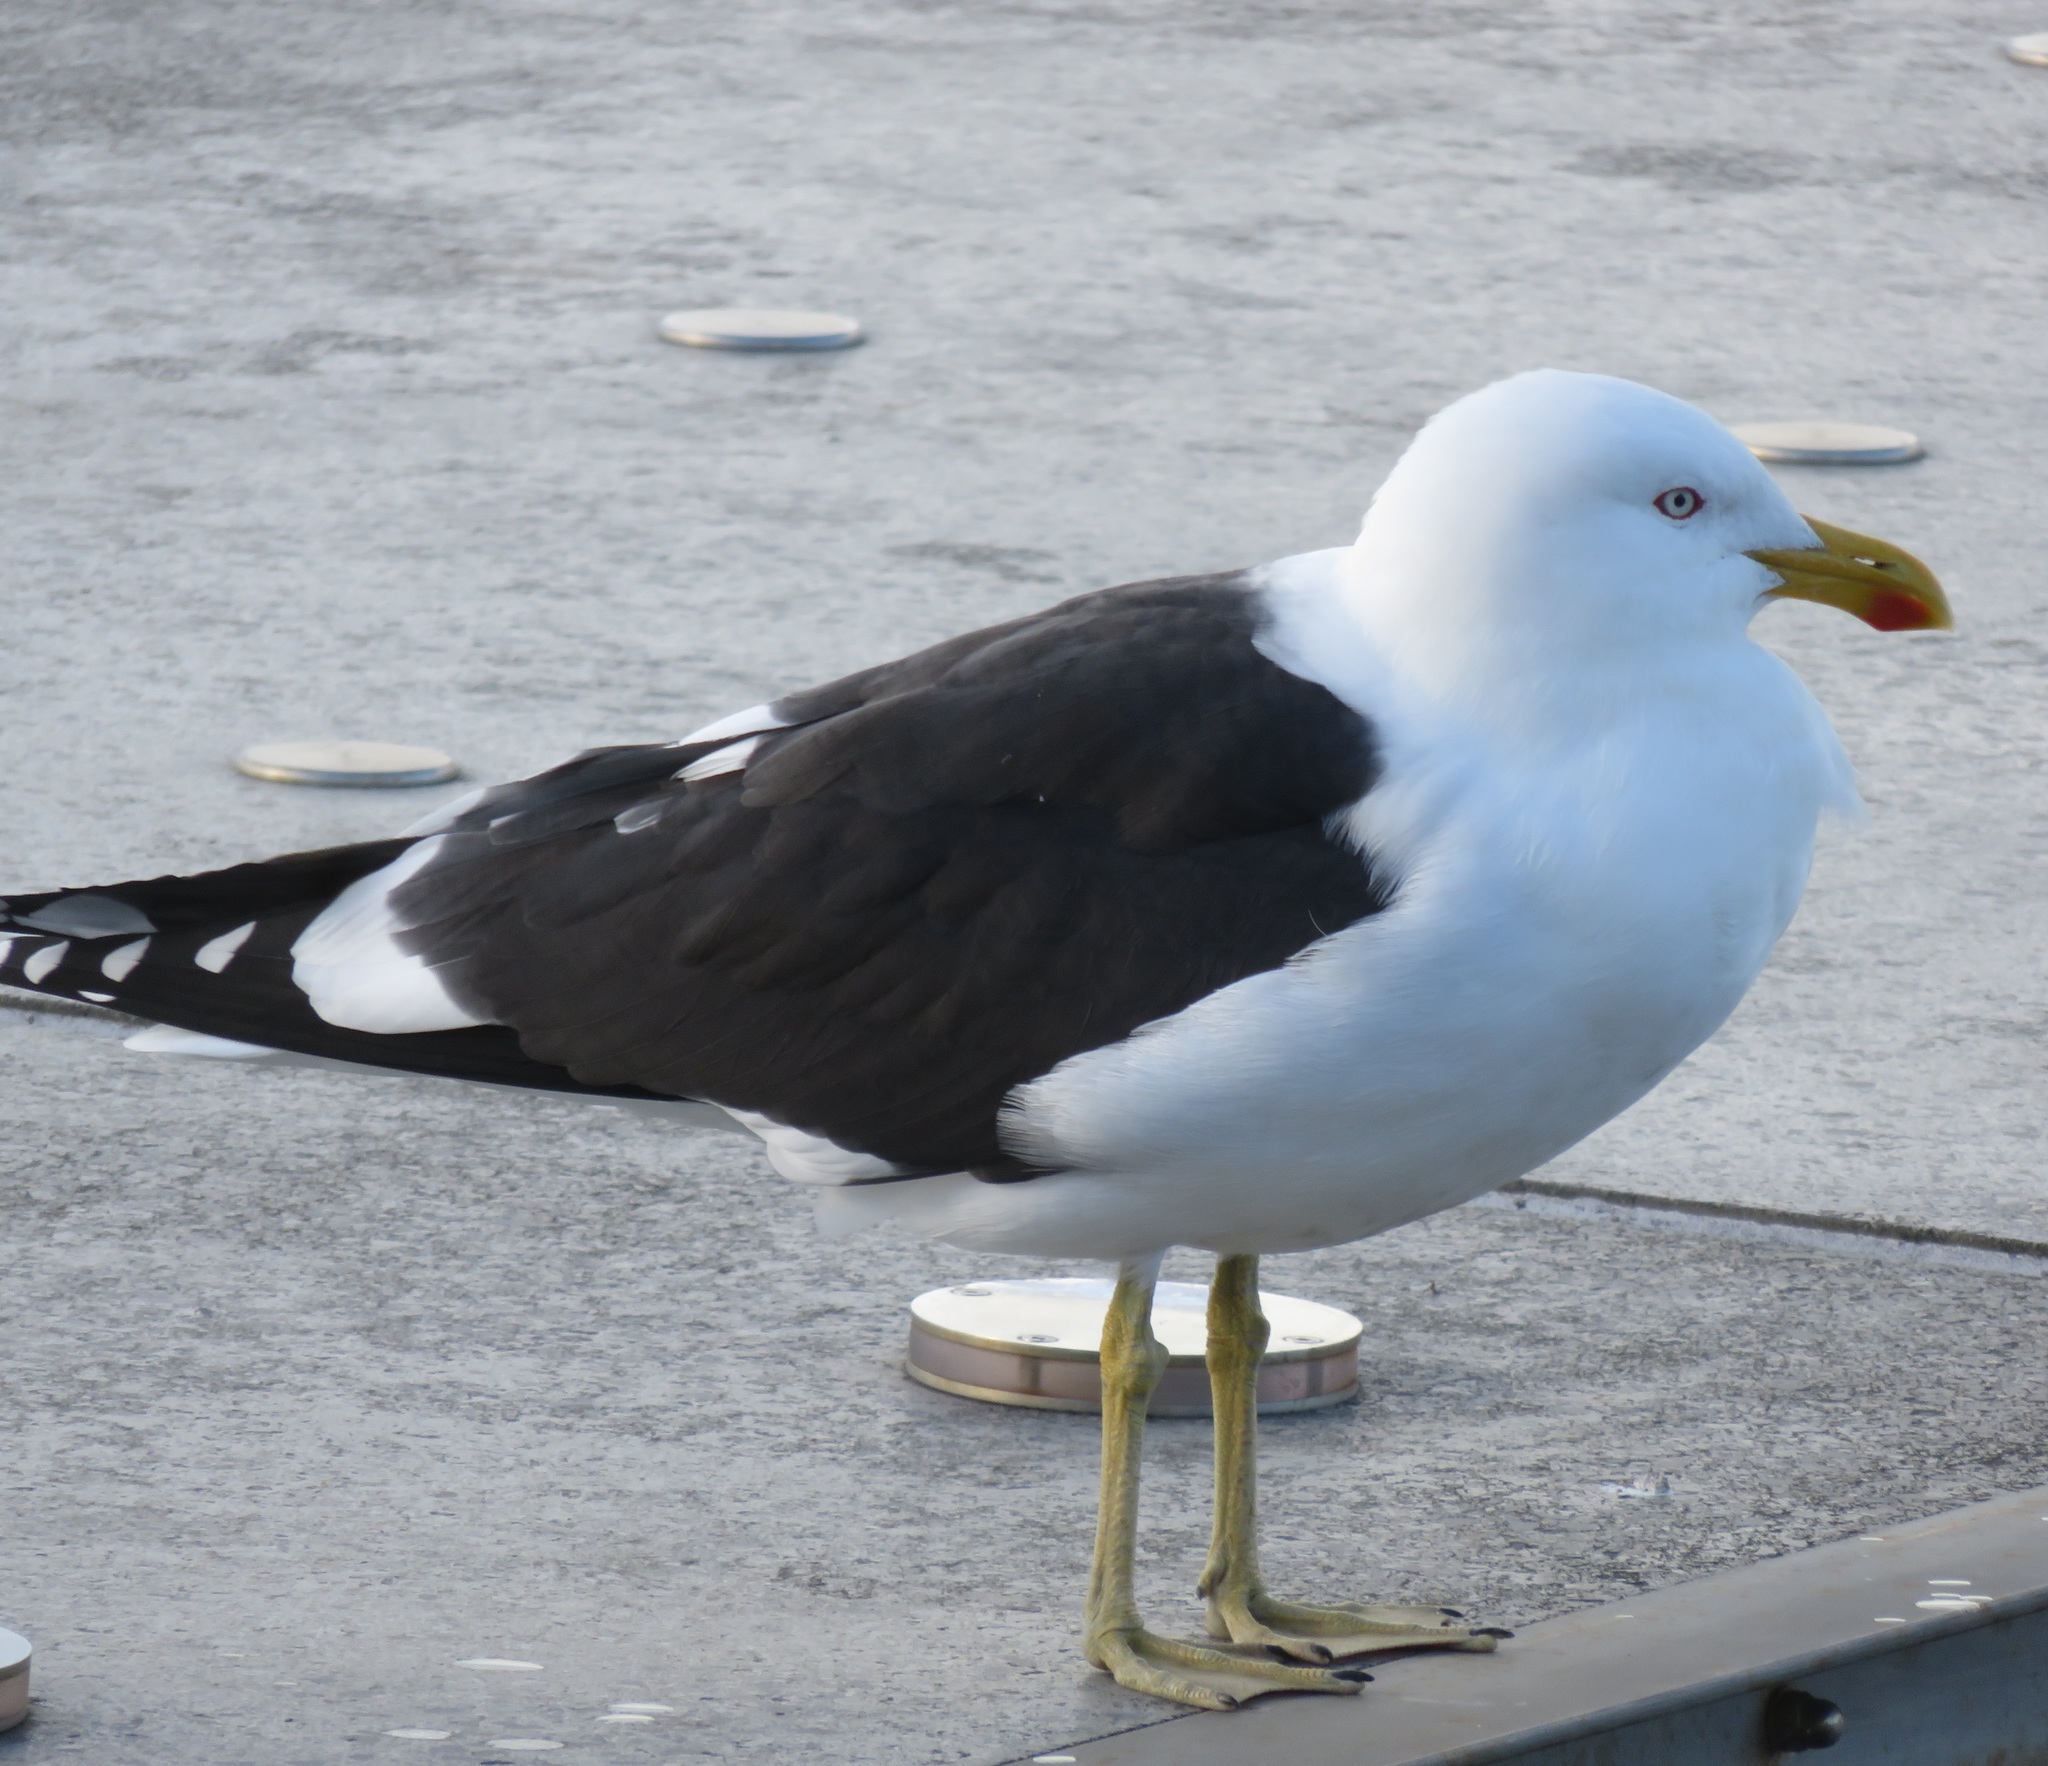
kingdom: Animalia
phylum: Chordata
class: Aves
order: Charadriiformes
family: Laridae
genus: Larus
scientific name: Larus dominicanus
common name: Kelp gull
